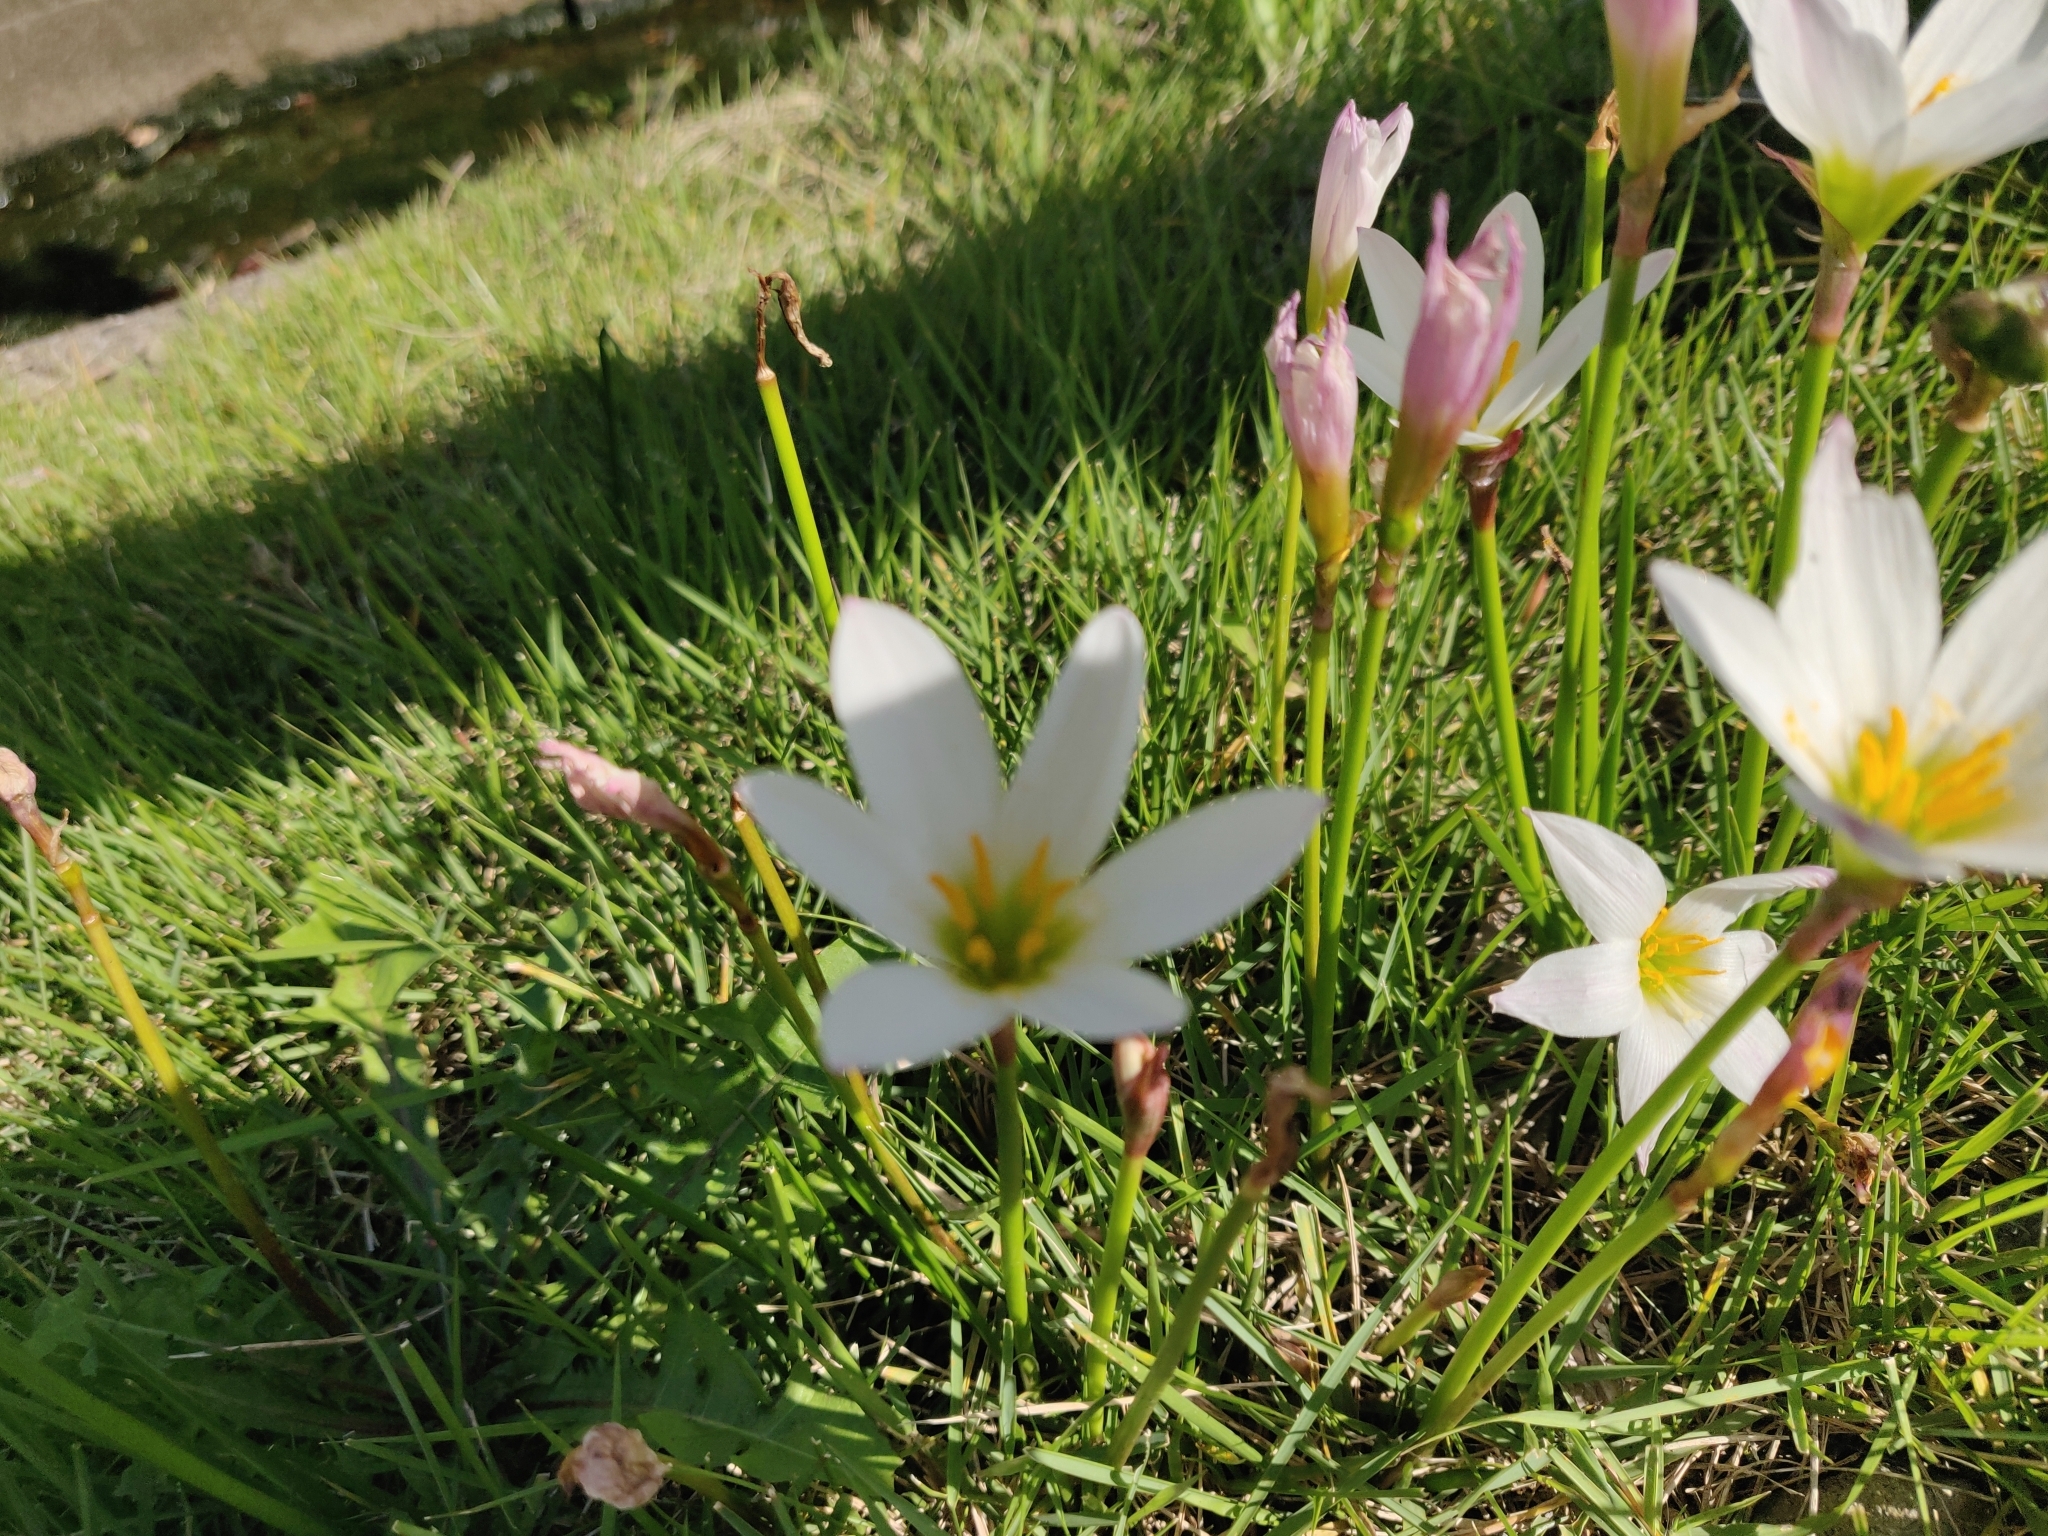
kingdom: Plantae
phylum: Tracheophyta
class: Liliopsida
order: Asparagales
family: Amaryllidaceae
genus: Zephyranthes
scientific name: Zephyranthes candida
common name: Autumn zephyrlily
